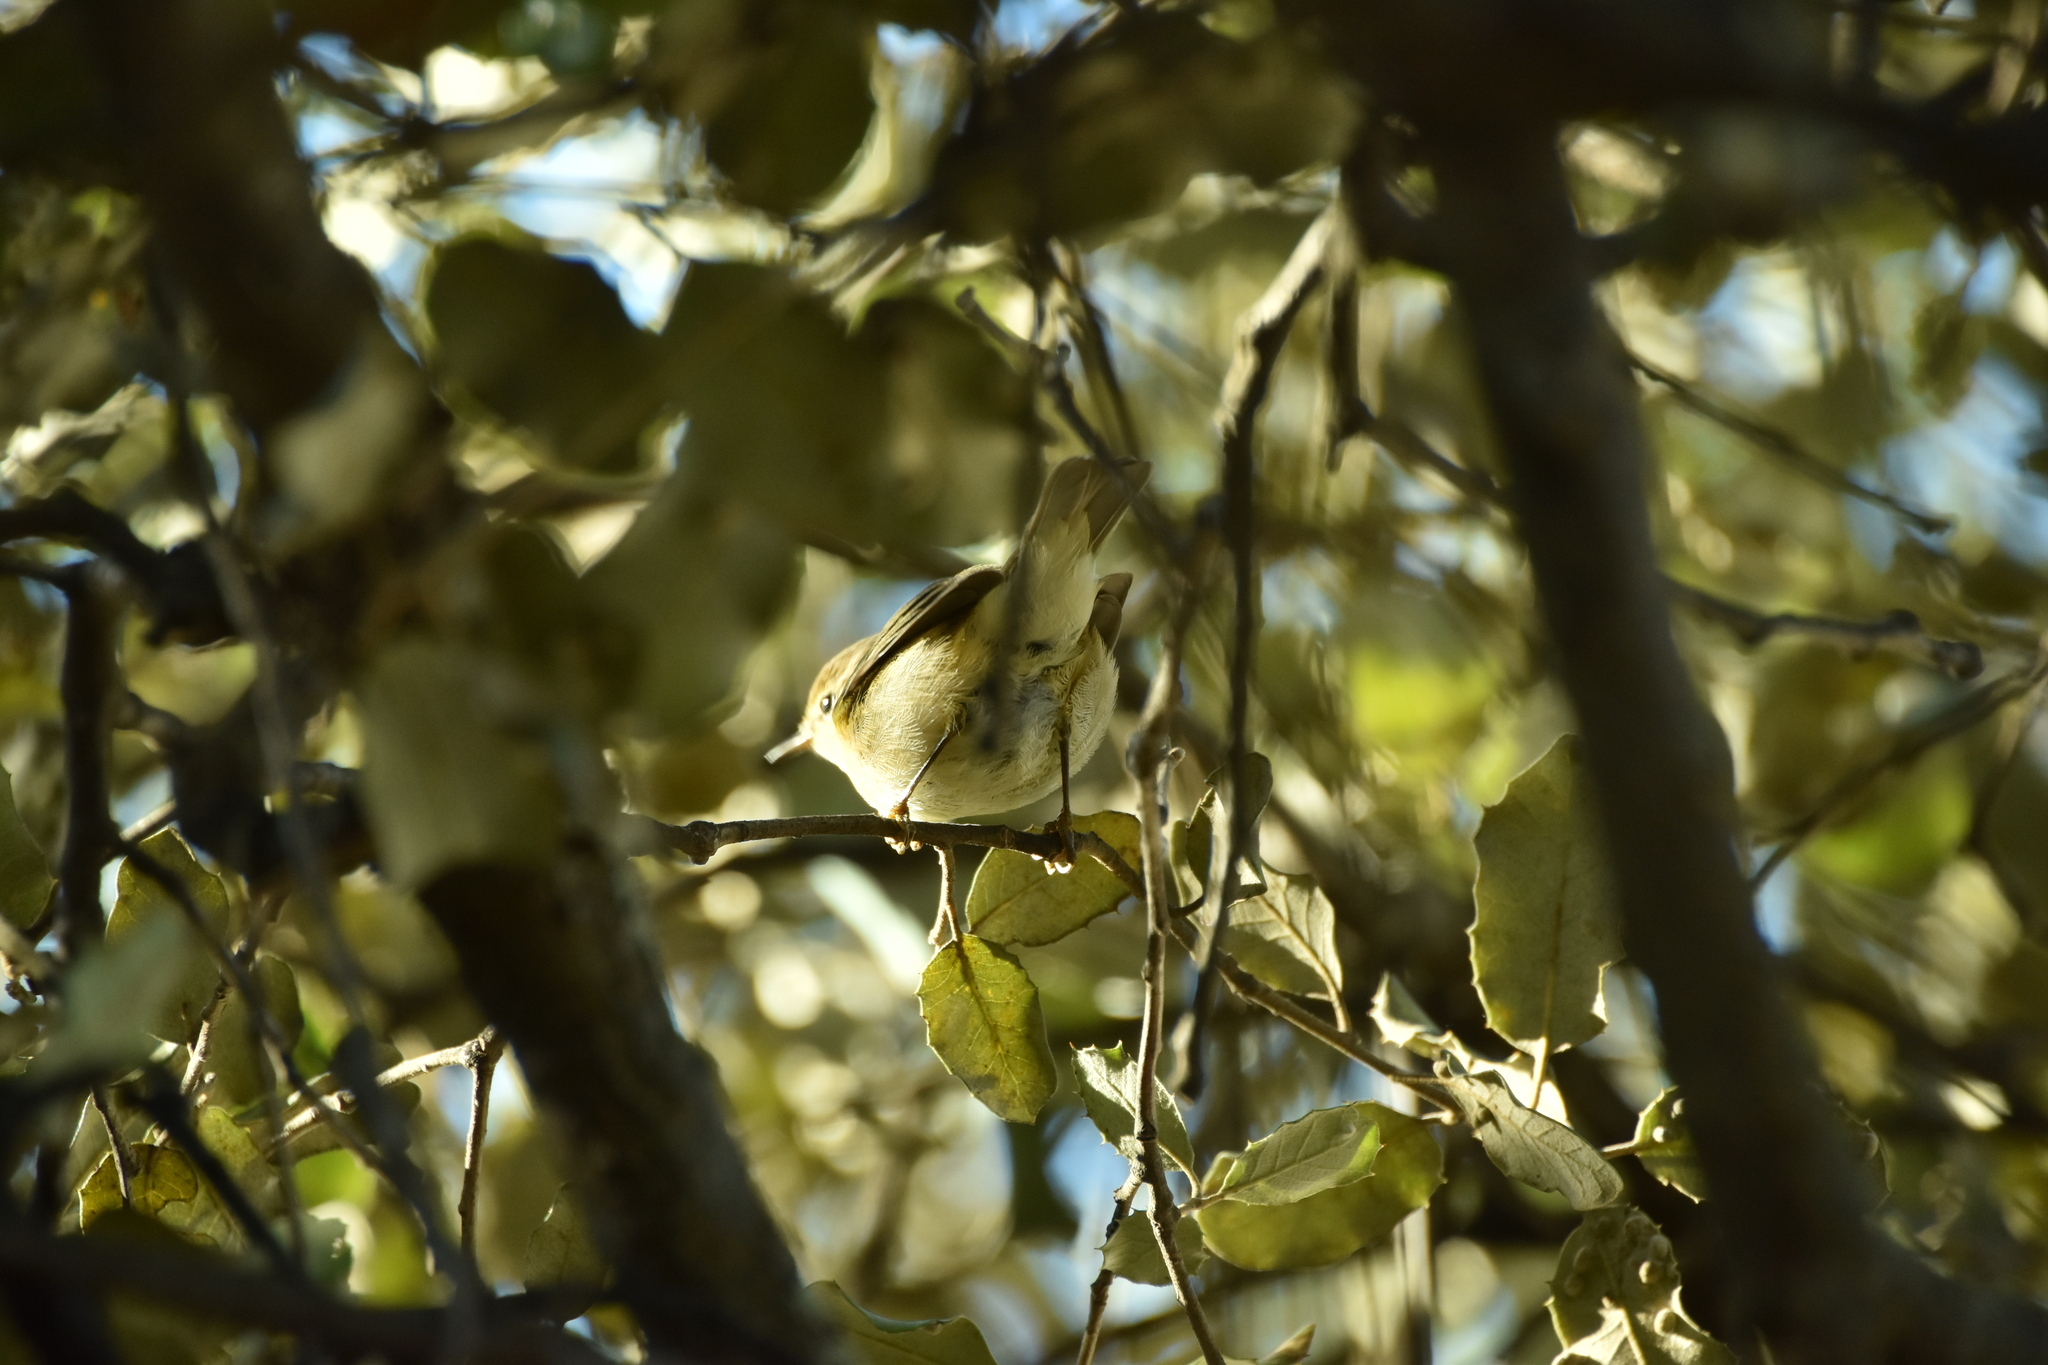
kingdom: Animalia
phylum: Chordata
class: Aves
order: Passeriformes
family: Phylloscopidae
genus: Phylloscopus
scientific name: Phylloscopus collybita
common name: Common chiffchaff
